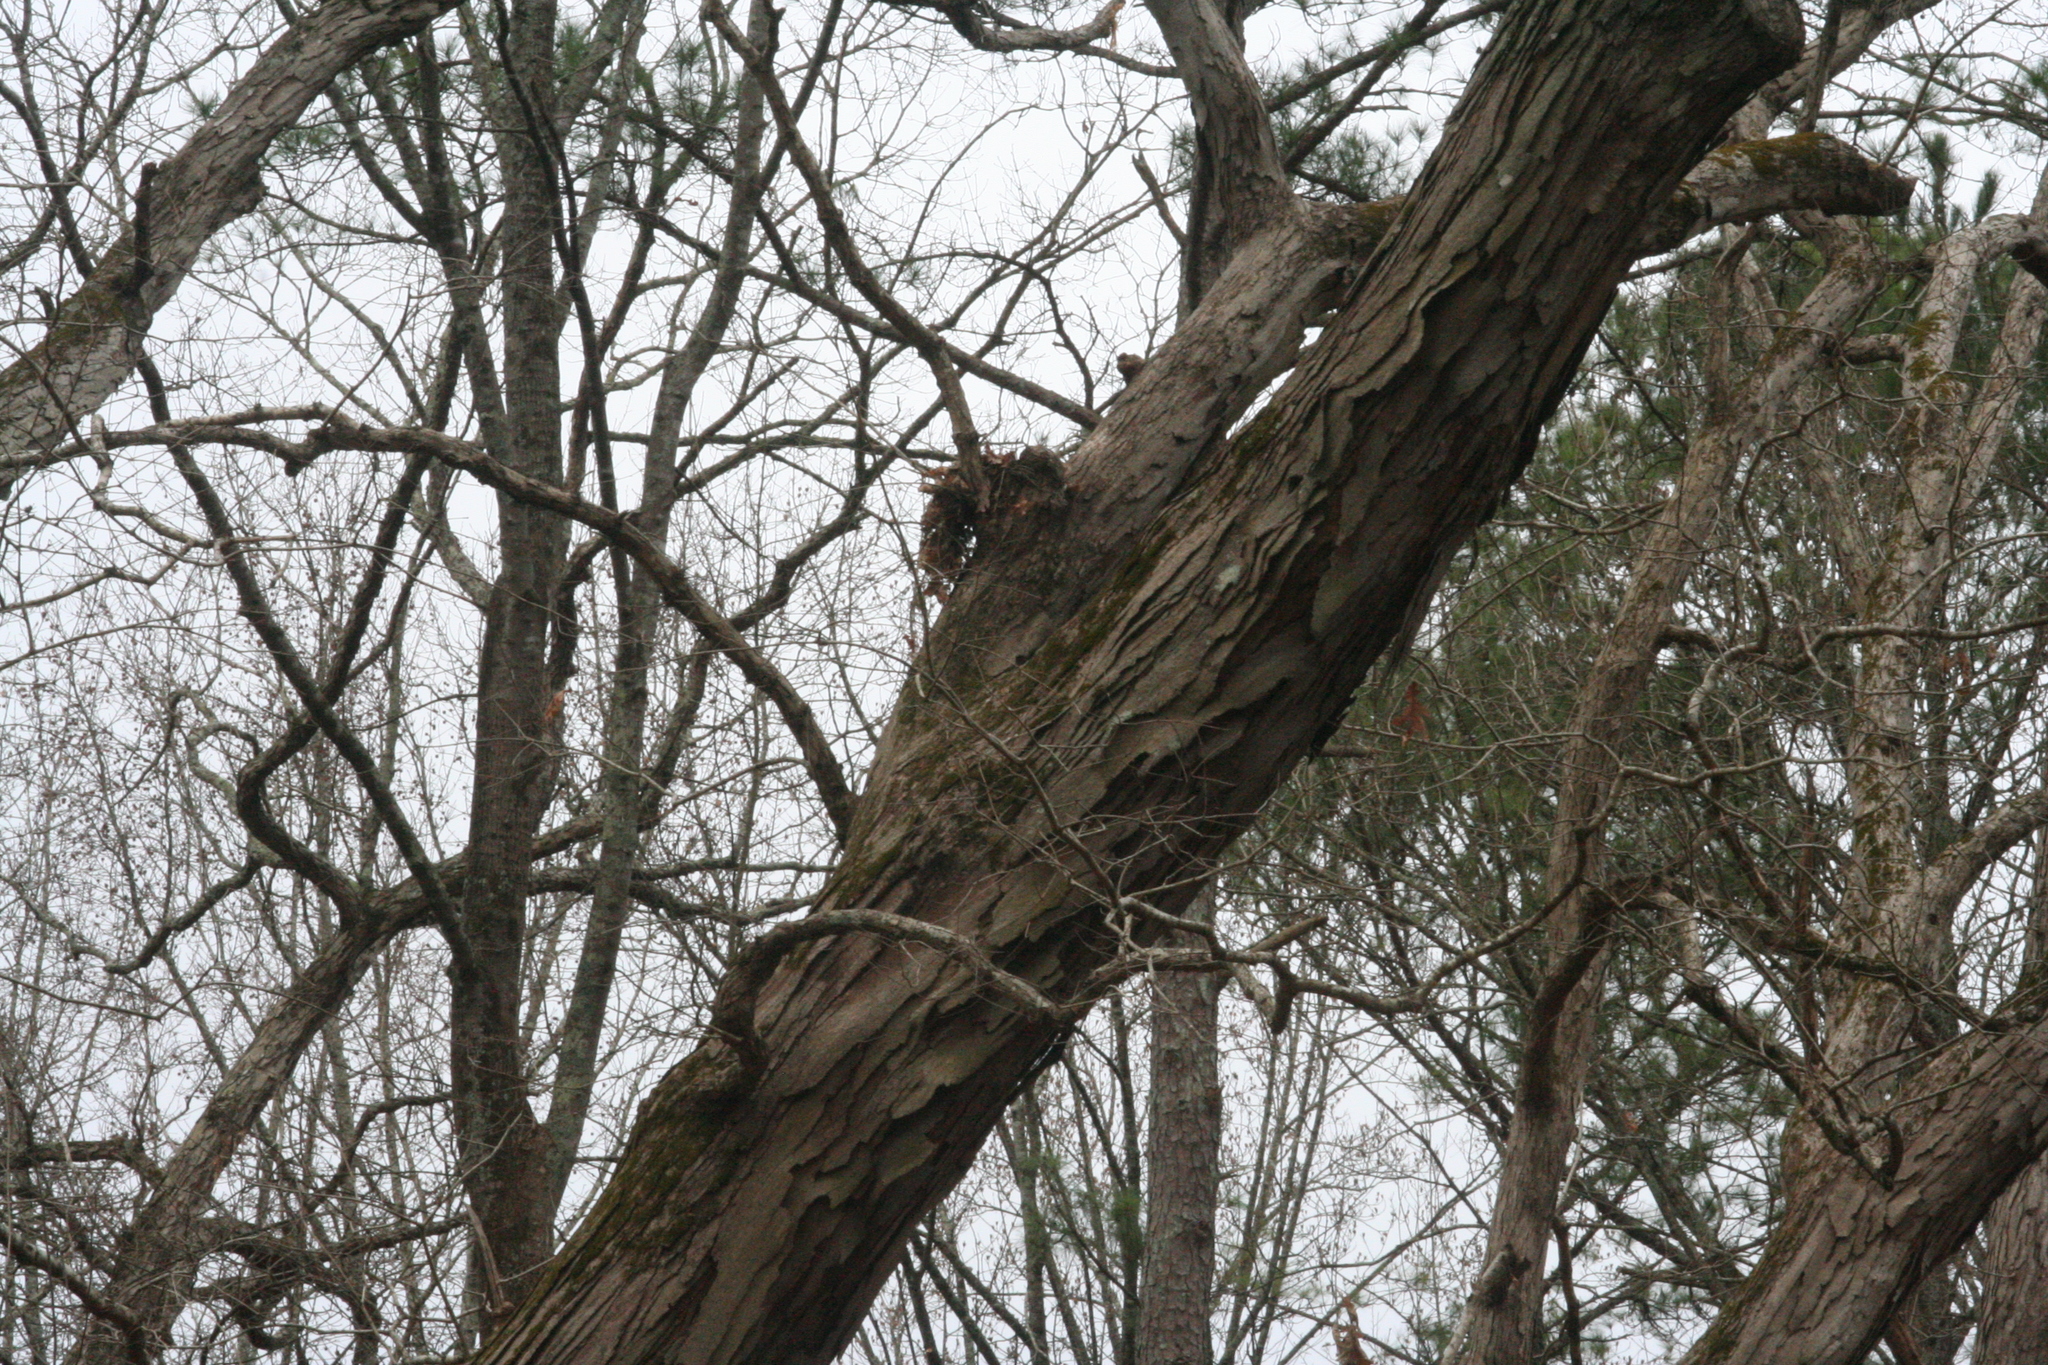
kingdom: Plantae
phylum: Tracheophyta
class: Magnoliopsida
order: Fagales
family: Fagaceae
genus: Quercus
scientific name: Quercus alba
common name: White oak
